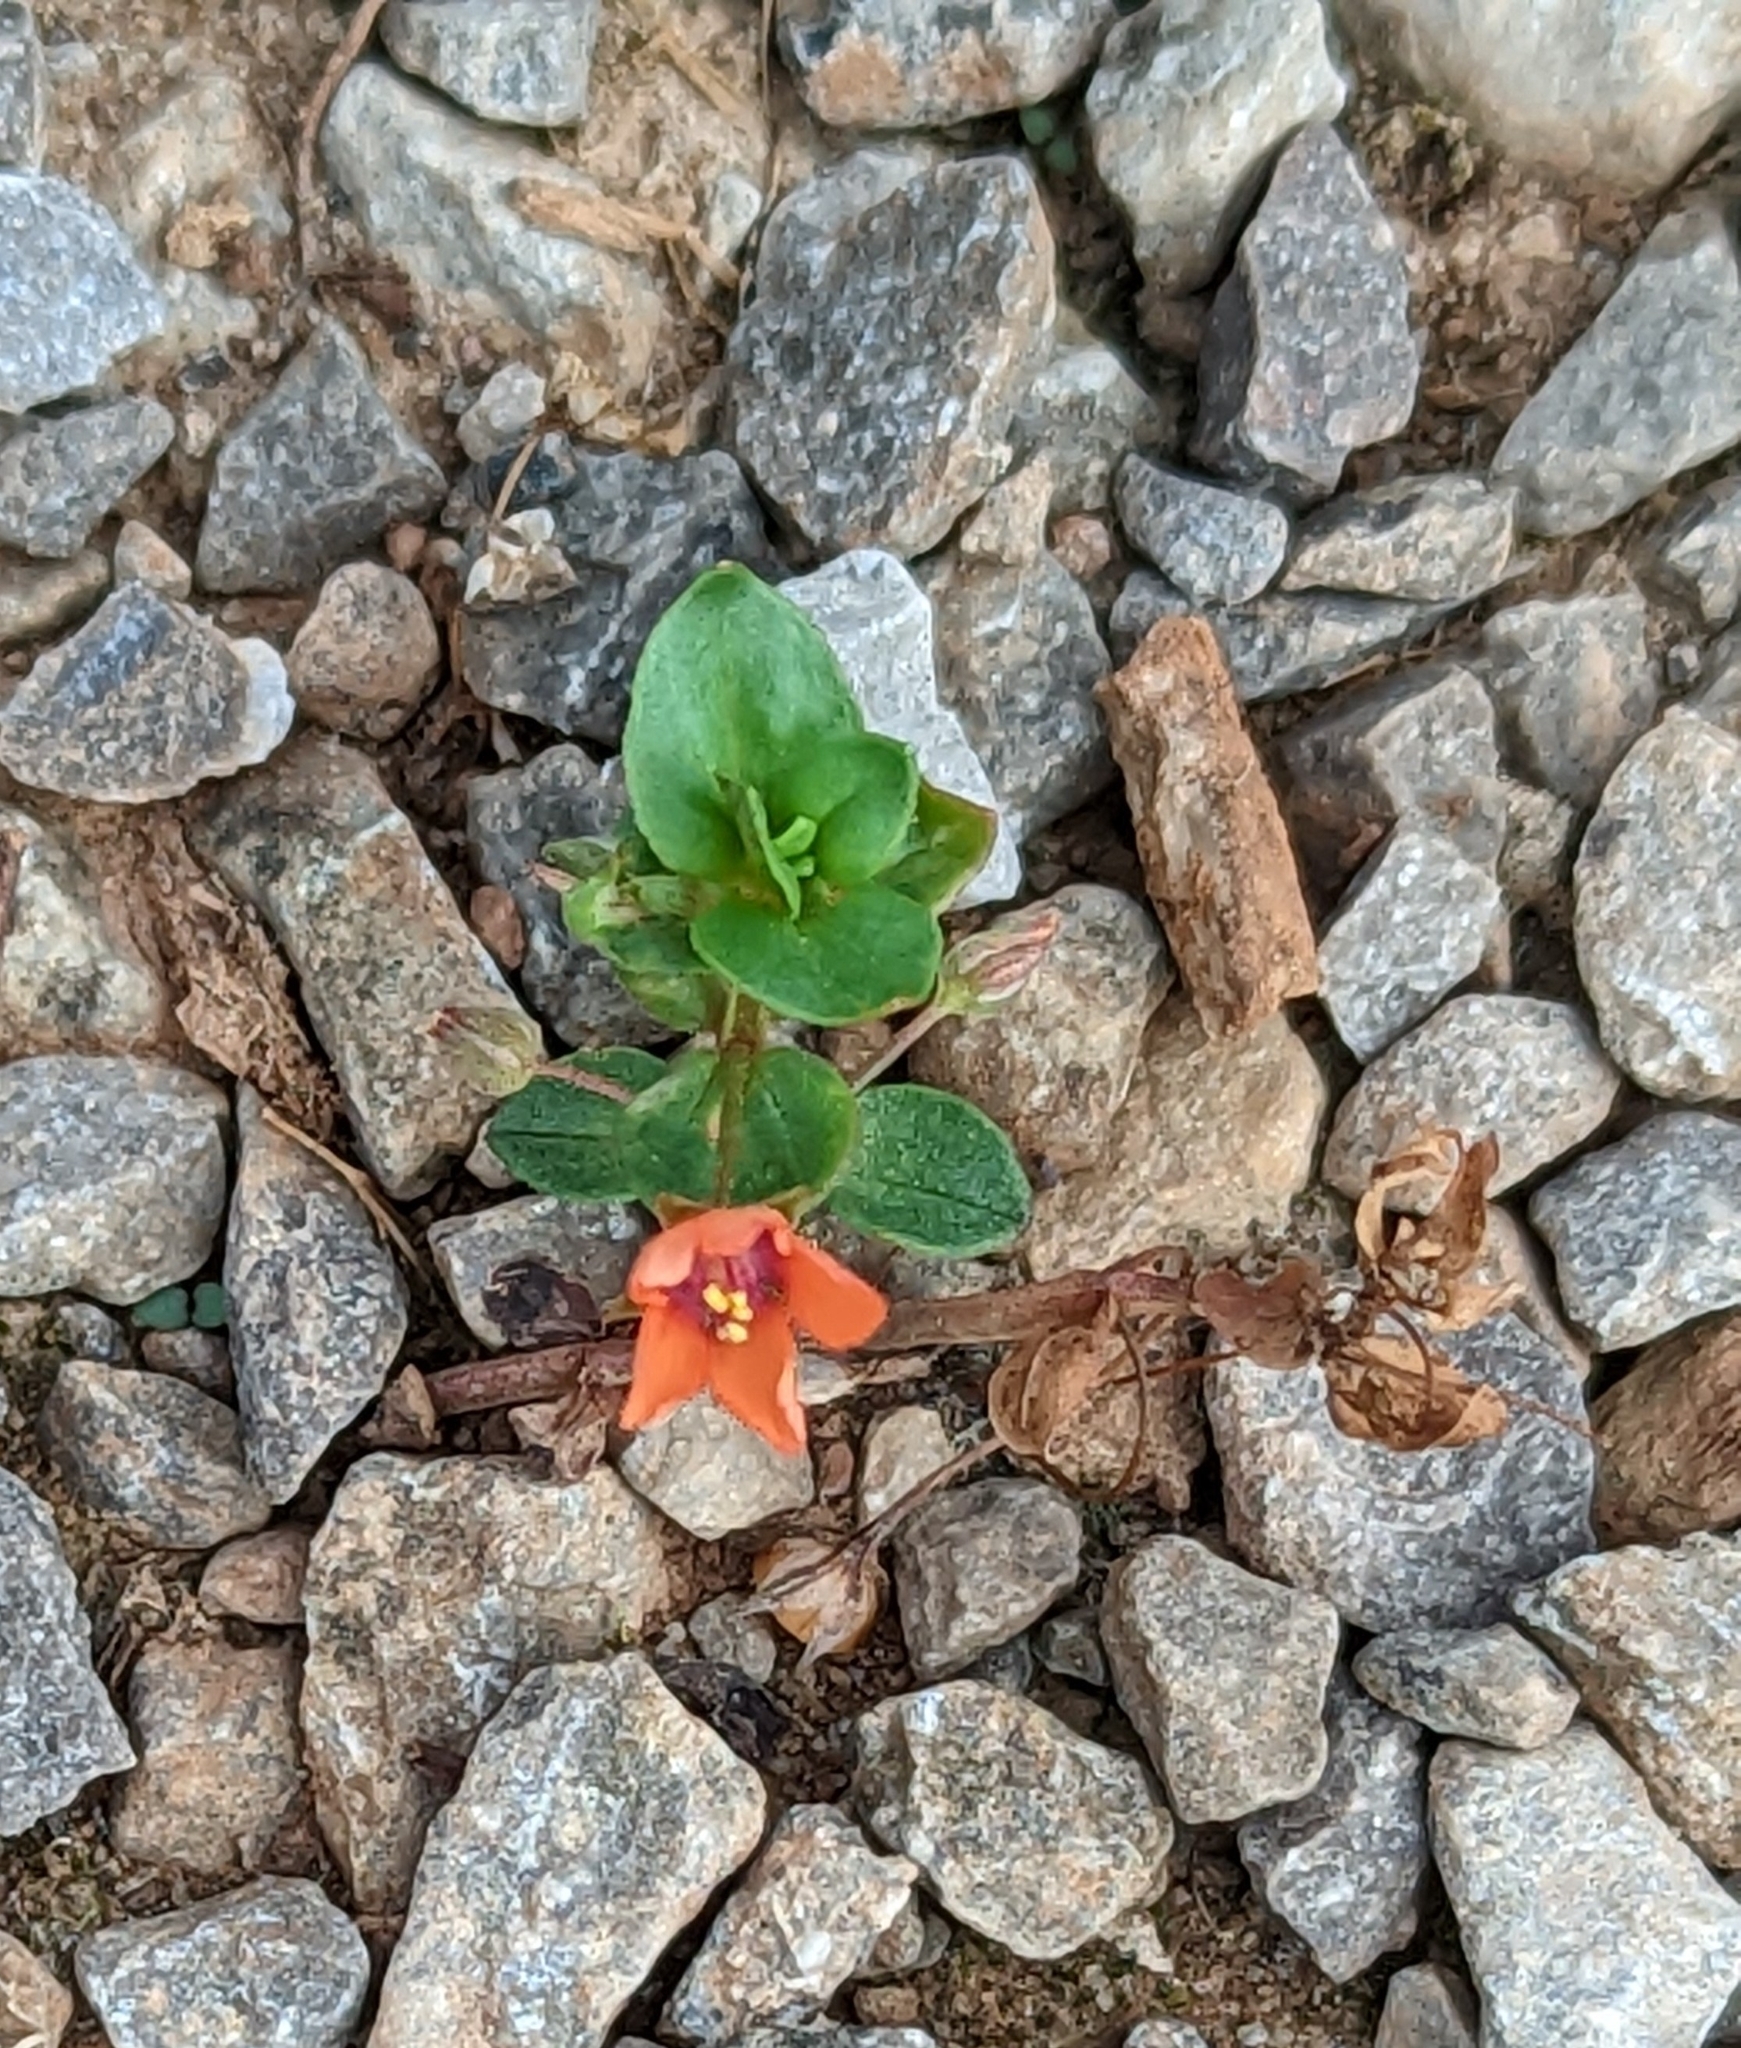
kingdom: Plantae
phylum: Tracheophyta
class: Magnoliopsida
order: Ericales
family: Primulaceae
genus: Lysimachia
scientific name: Lysimachia arvensis
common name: Scarlet pimpernel
